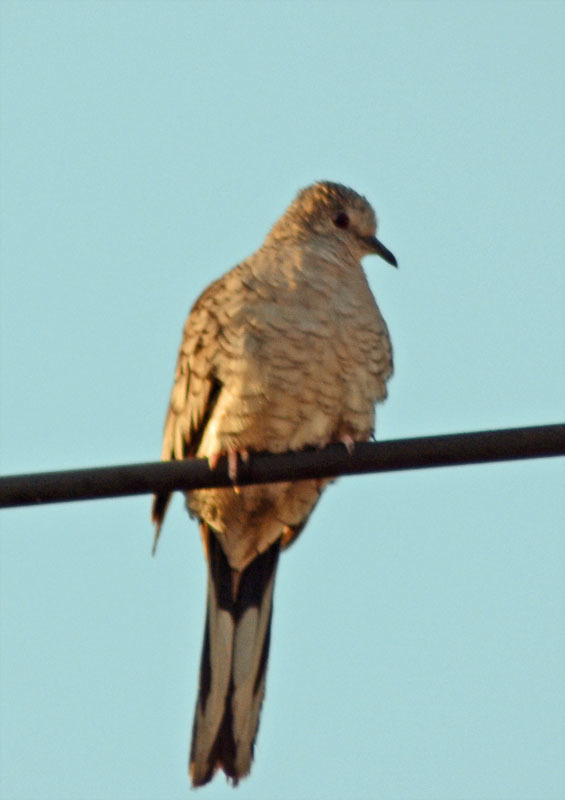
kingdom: Animalia
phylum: Chordata
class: Aves
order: Columbiformes
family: Columbidae
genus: Columbina
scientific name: Columbina inca
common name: Inca dove
